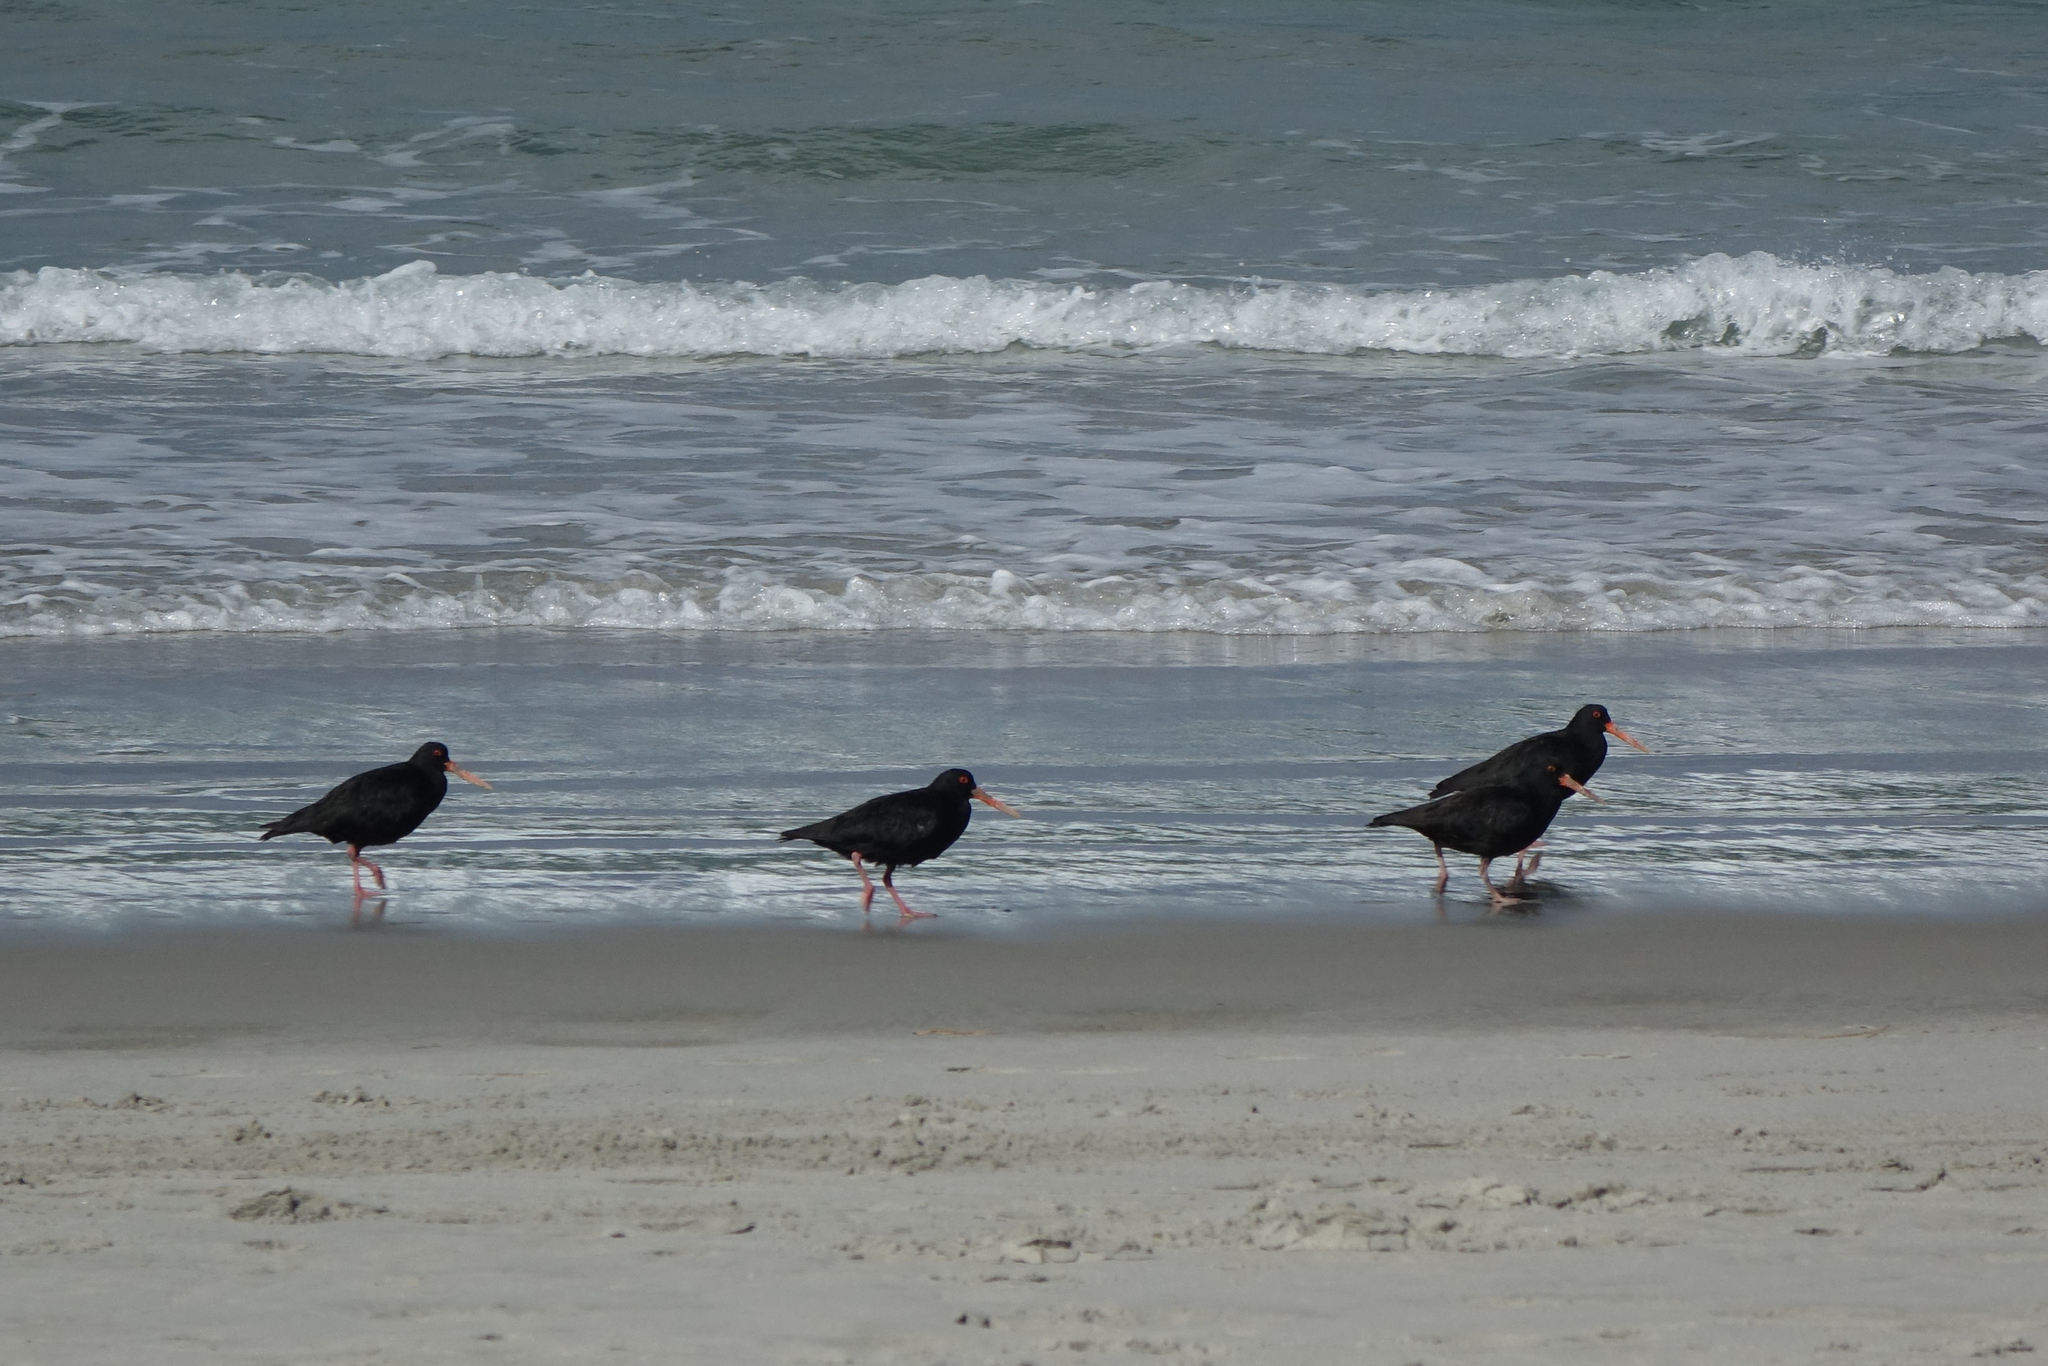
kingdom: Animalia
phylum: Chordata
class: Aves
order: Charadriiformes
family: Haematopodidae
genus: Haematopus
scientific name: Haematopus unicolor
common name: Variable oystercatcher
